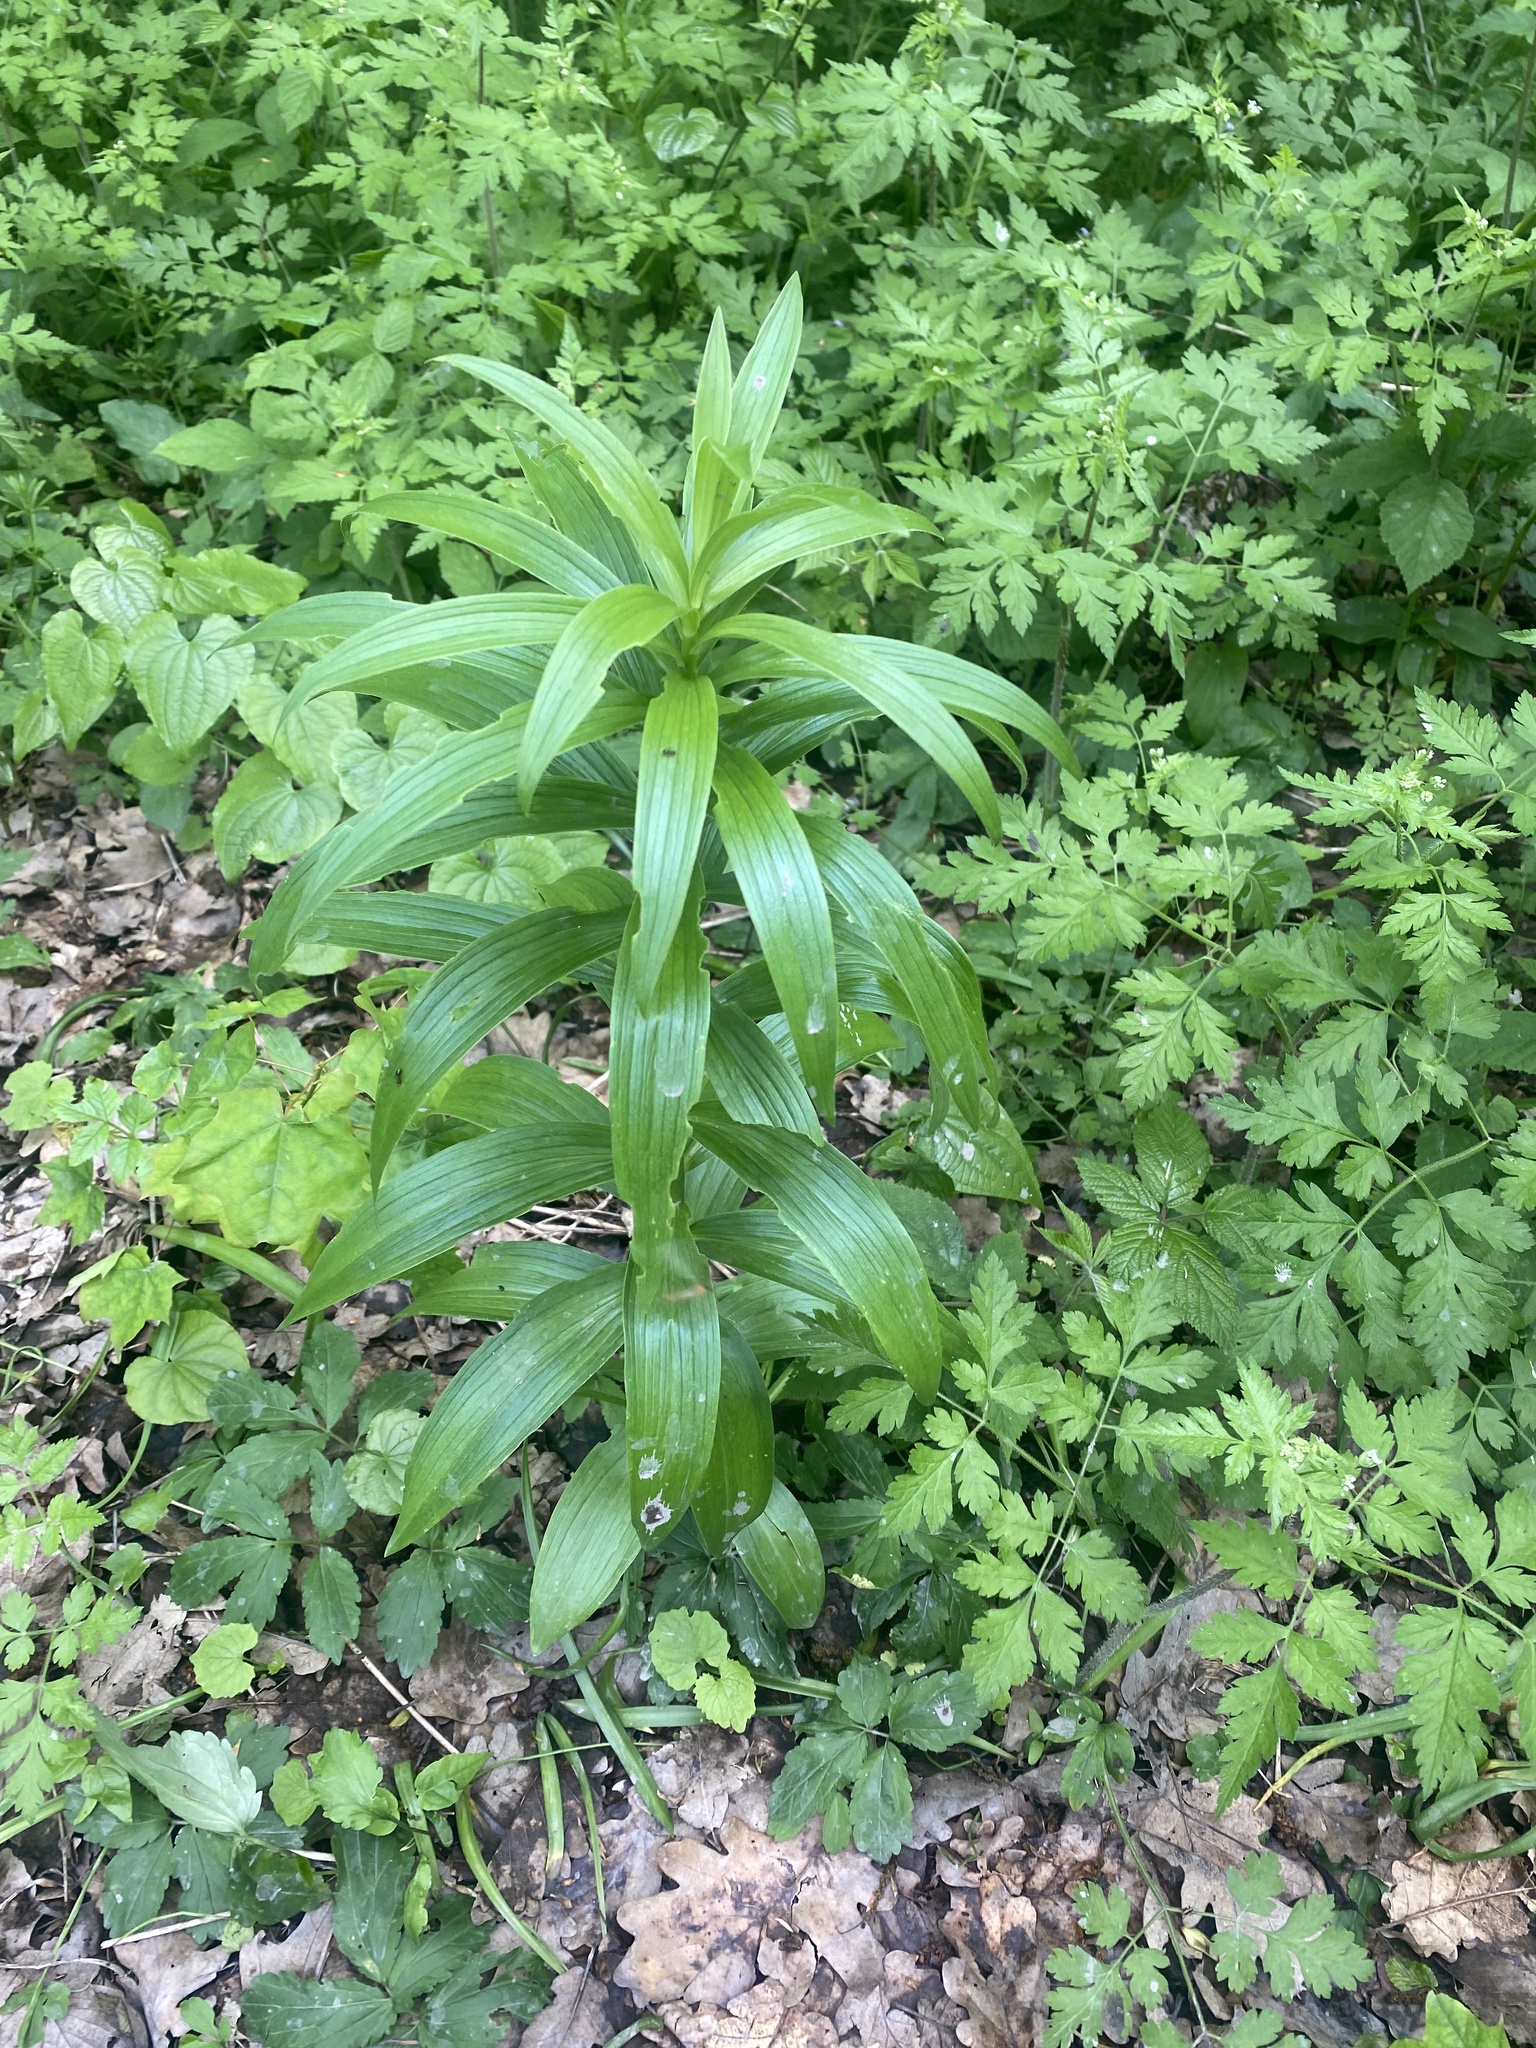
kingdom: Plantae
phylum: Tracheophyta
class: Liliopsida
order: Liliales
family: Liliaceae
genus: Lilium
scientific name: Lilium monadelphum
